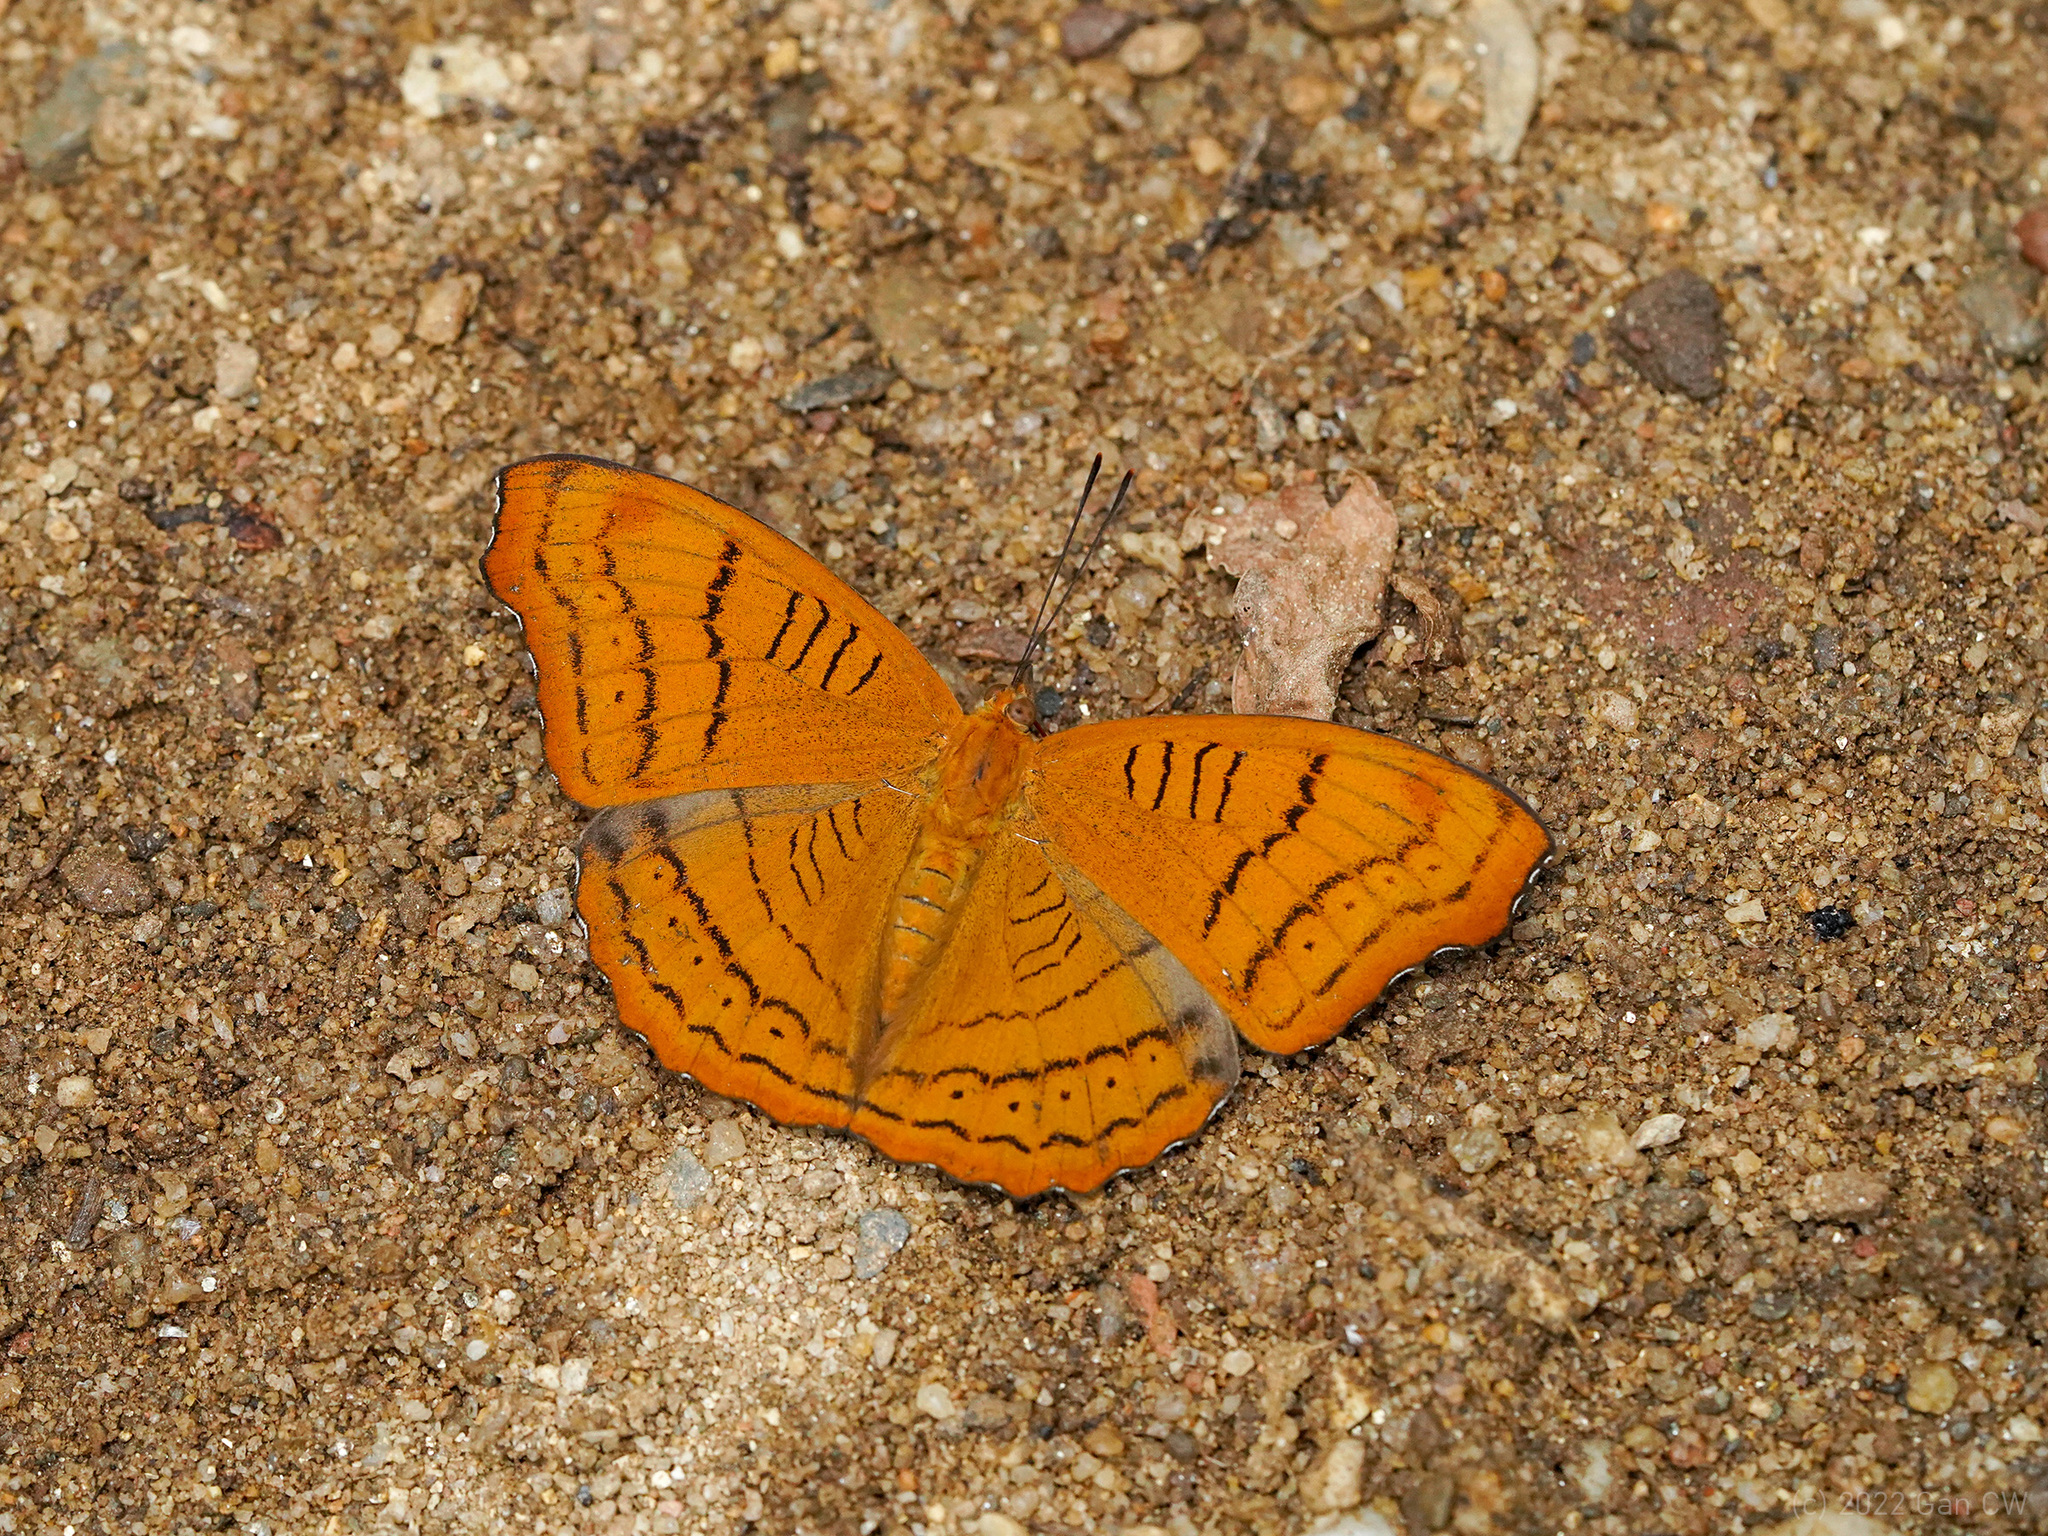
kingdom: Animalia
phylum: Arthropoda
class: Insecta
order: Lepidoptera
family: Nymphalidae
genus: Pseudergolis
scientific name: Pseudergolis wedah
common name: Tabby
